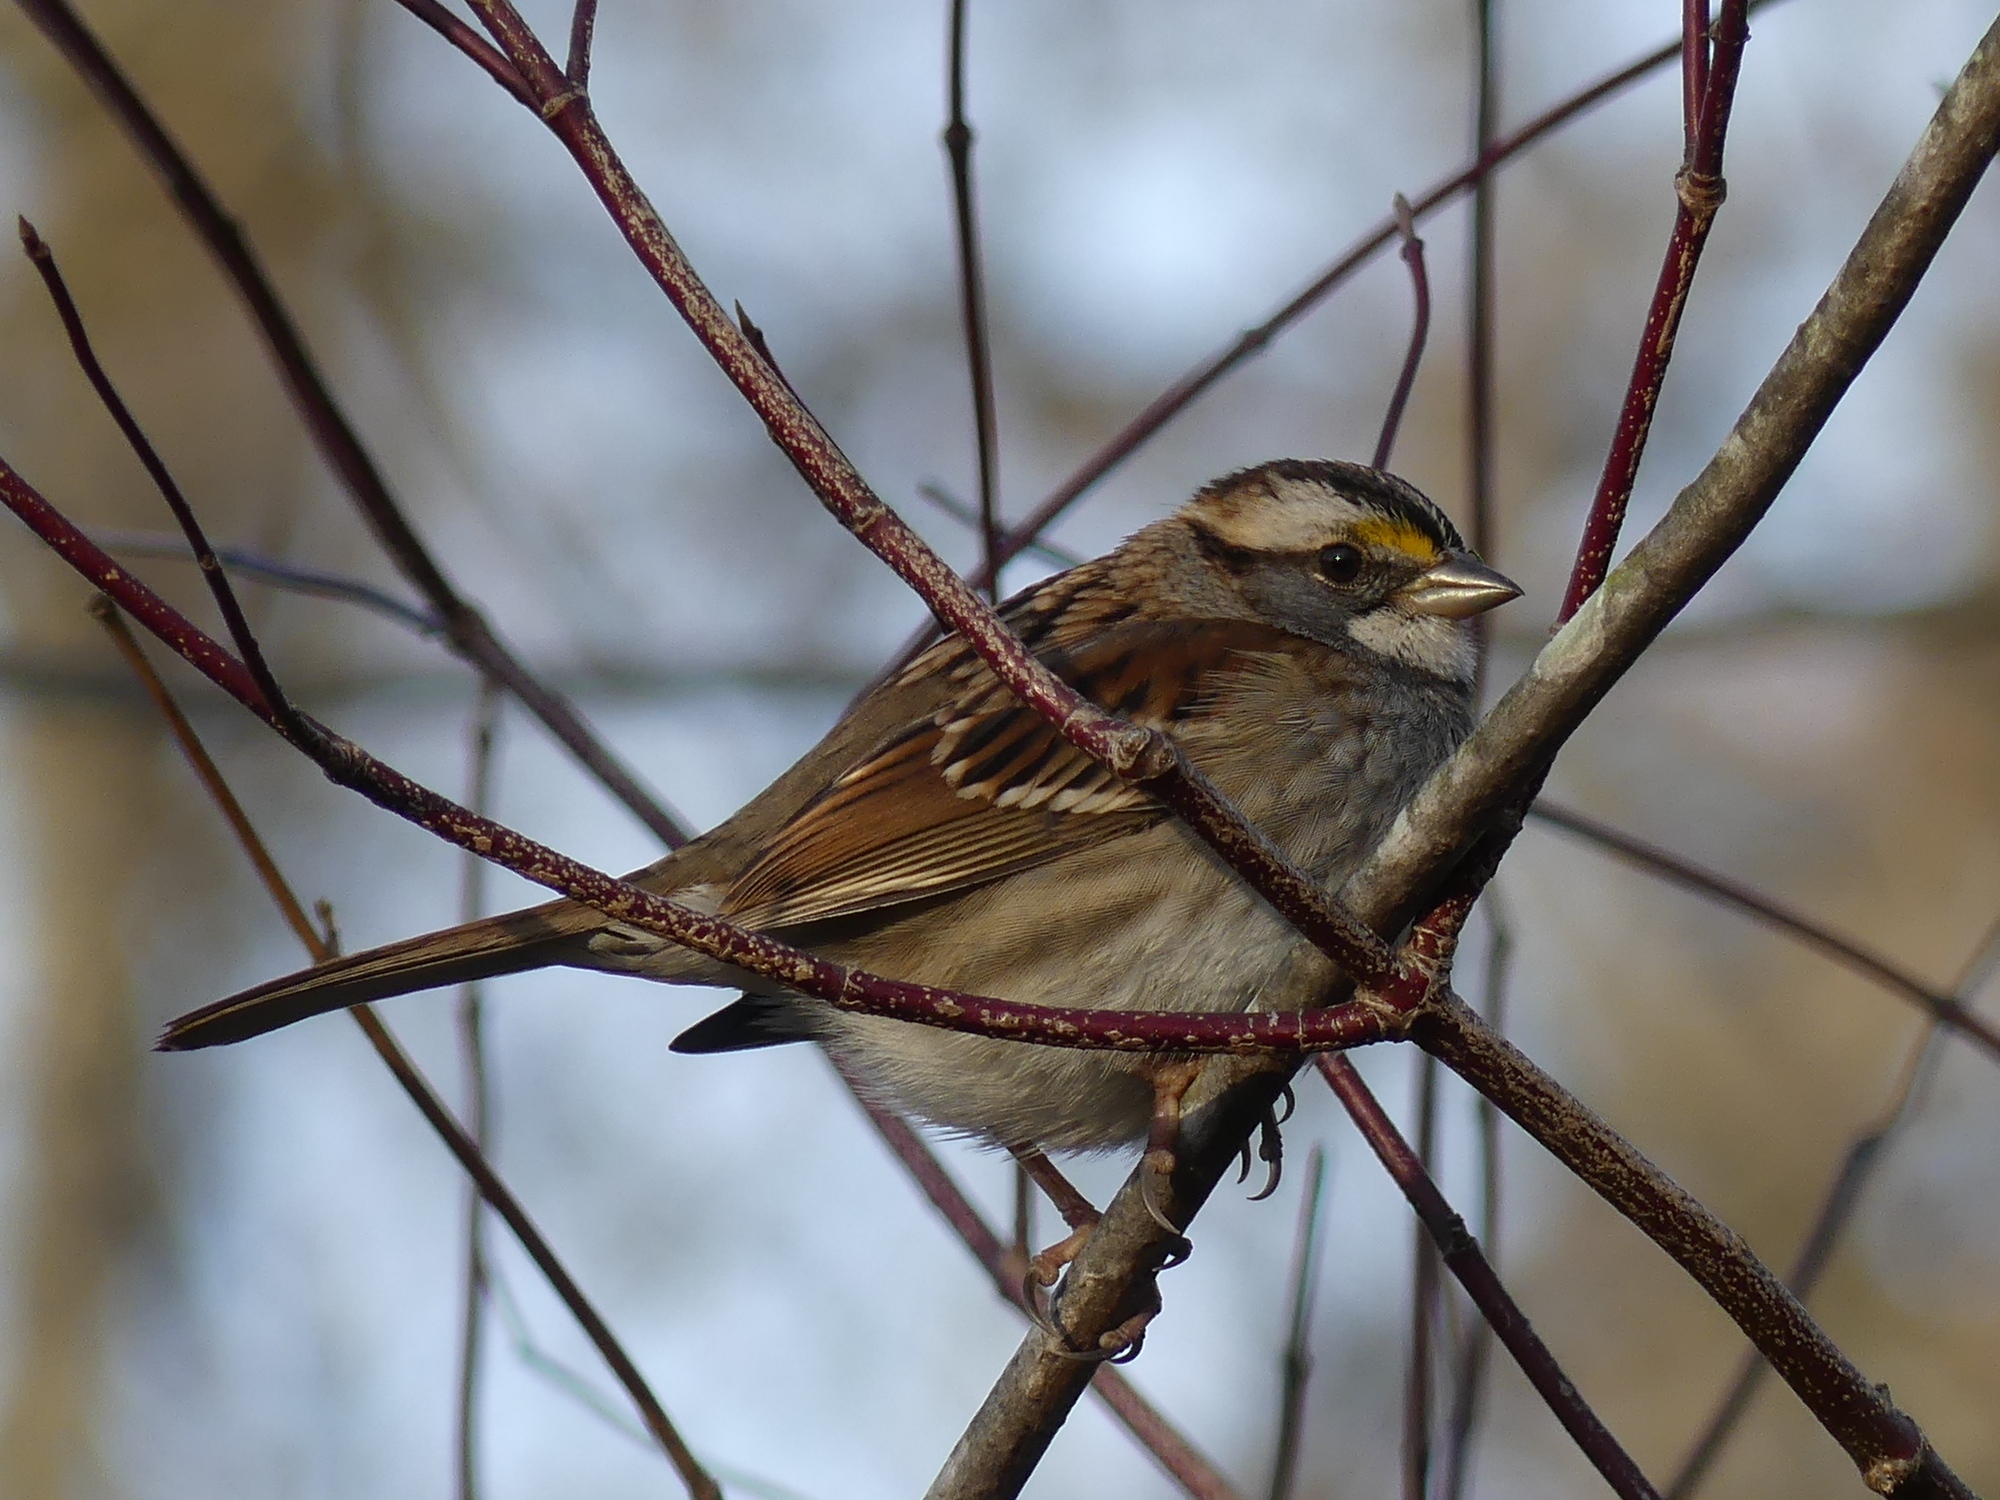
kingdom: Animalia
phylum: Chordata
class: Aves
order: Passeriformes
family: Passerellidae
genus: Zonotrichia
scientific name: Zonotrichia albicollis
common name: White-throated sparrow
